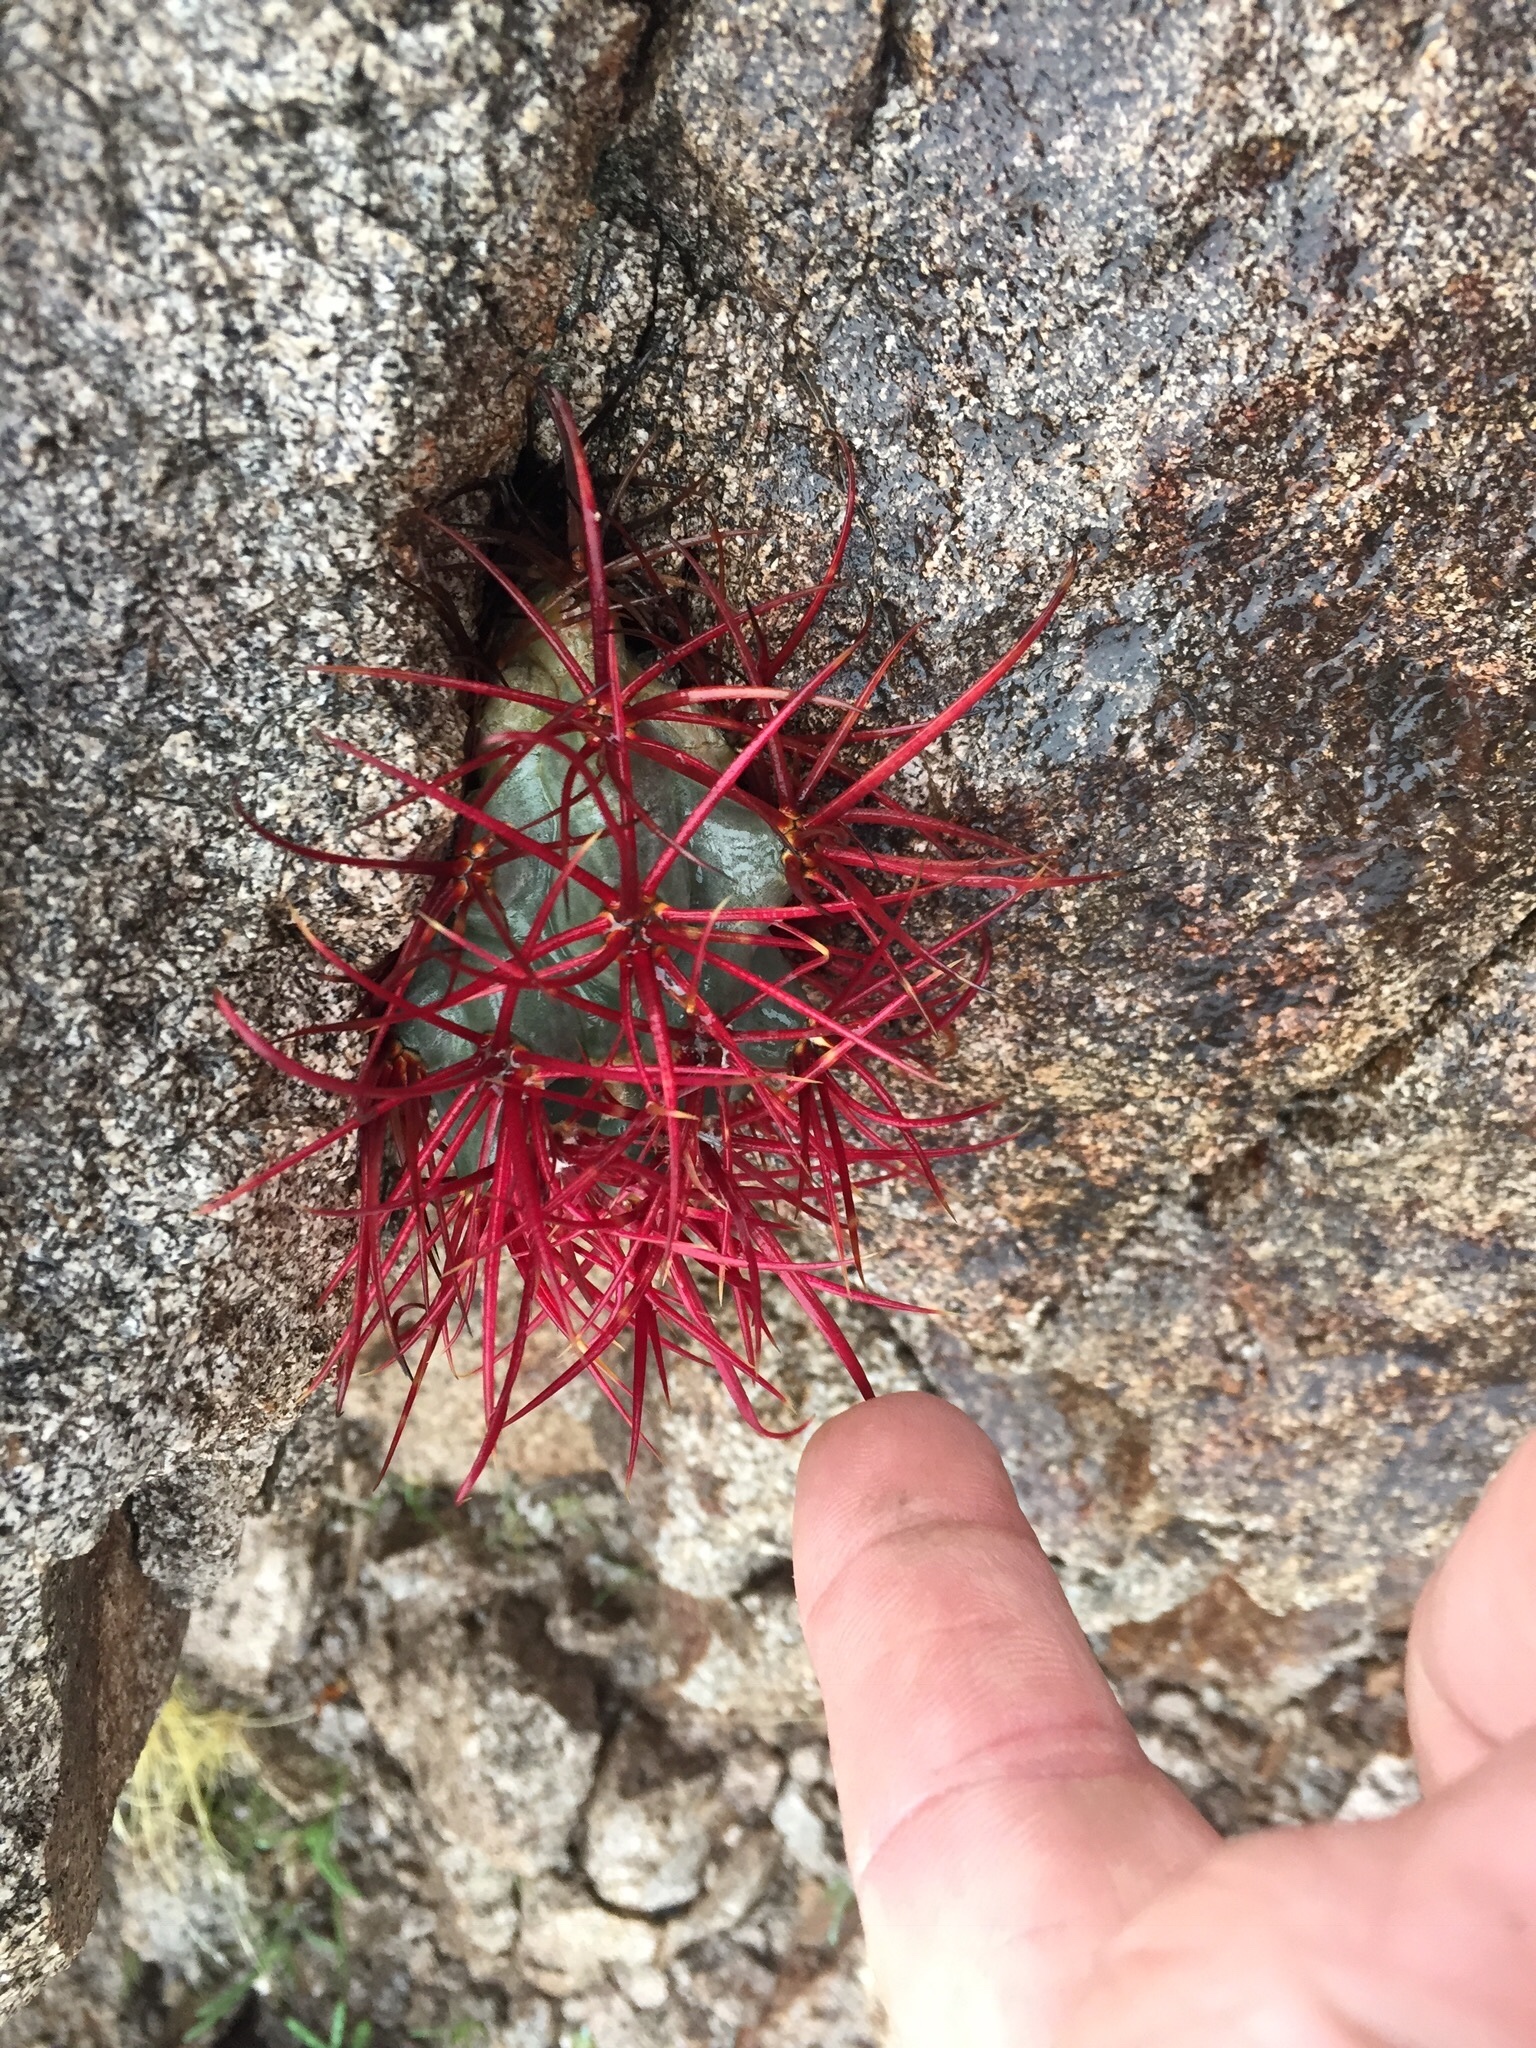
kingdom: Plantae
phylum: Tracheophyta
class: Magnoliopsida
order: Caryophyllales
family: Cactaceae
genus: Ferocactus
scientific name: Ferocactus cylindraceus
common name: California barrel cactus
